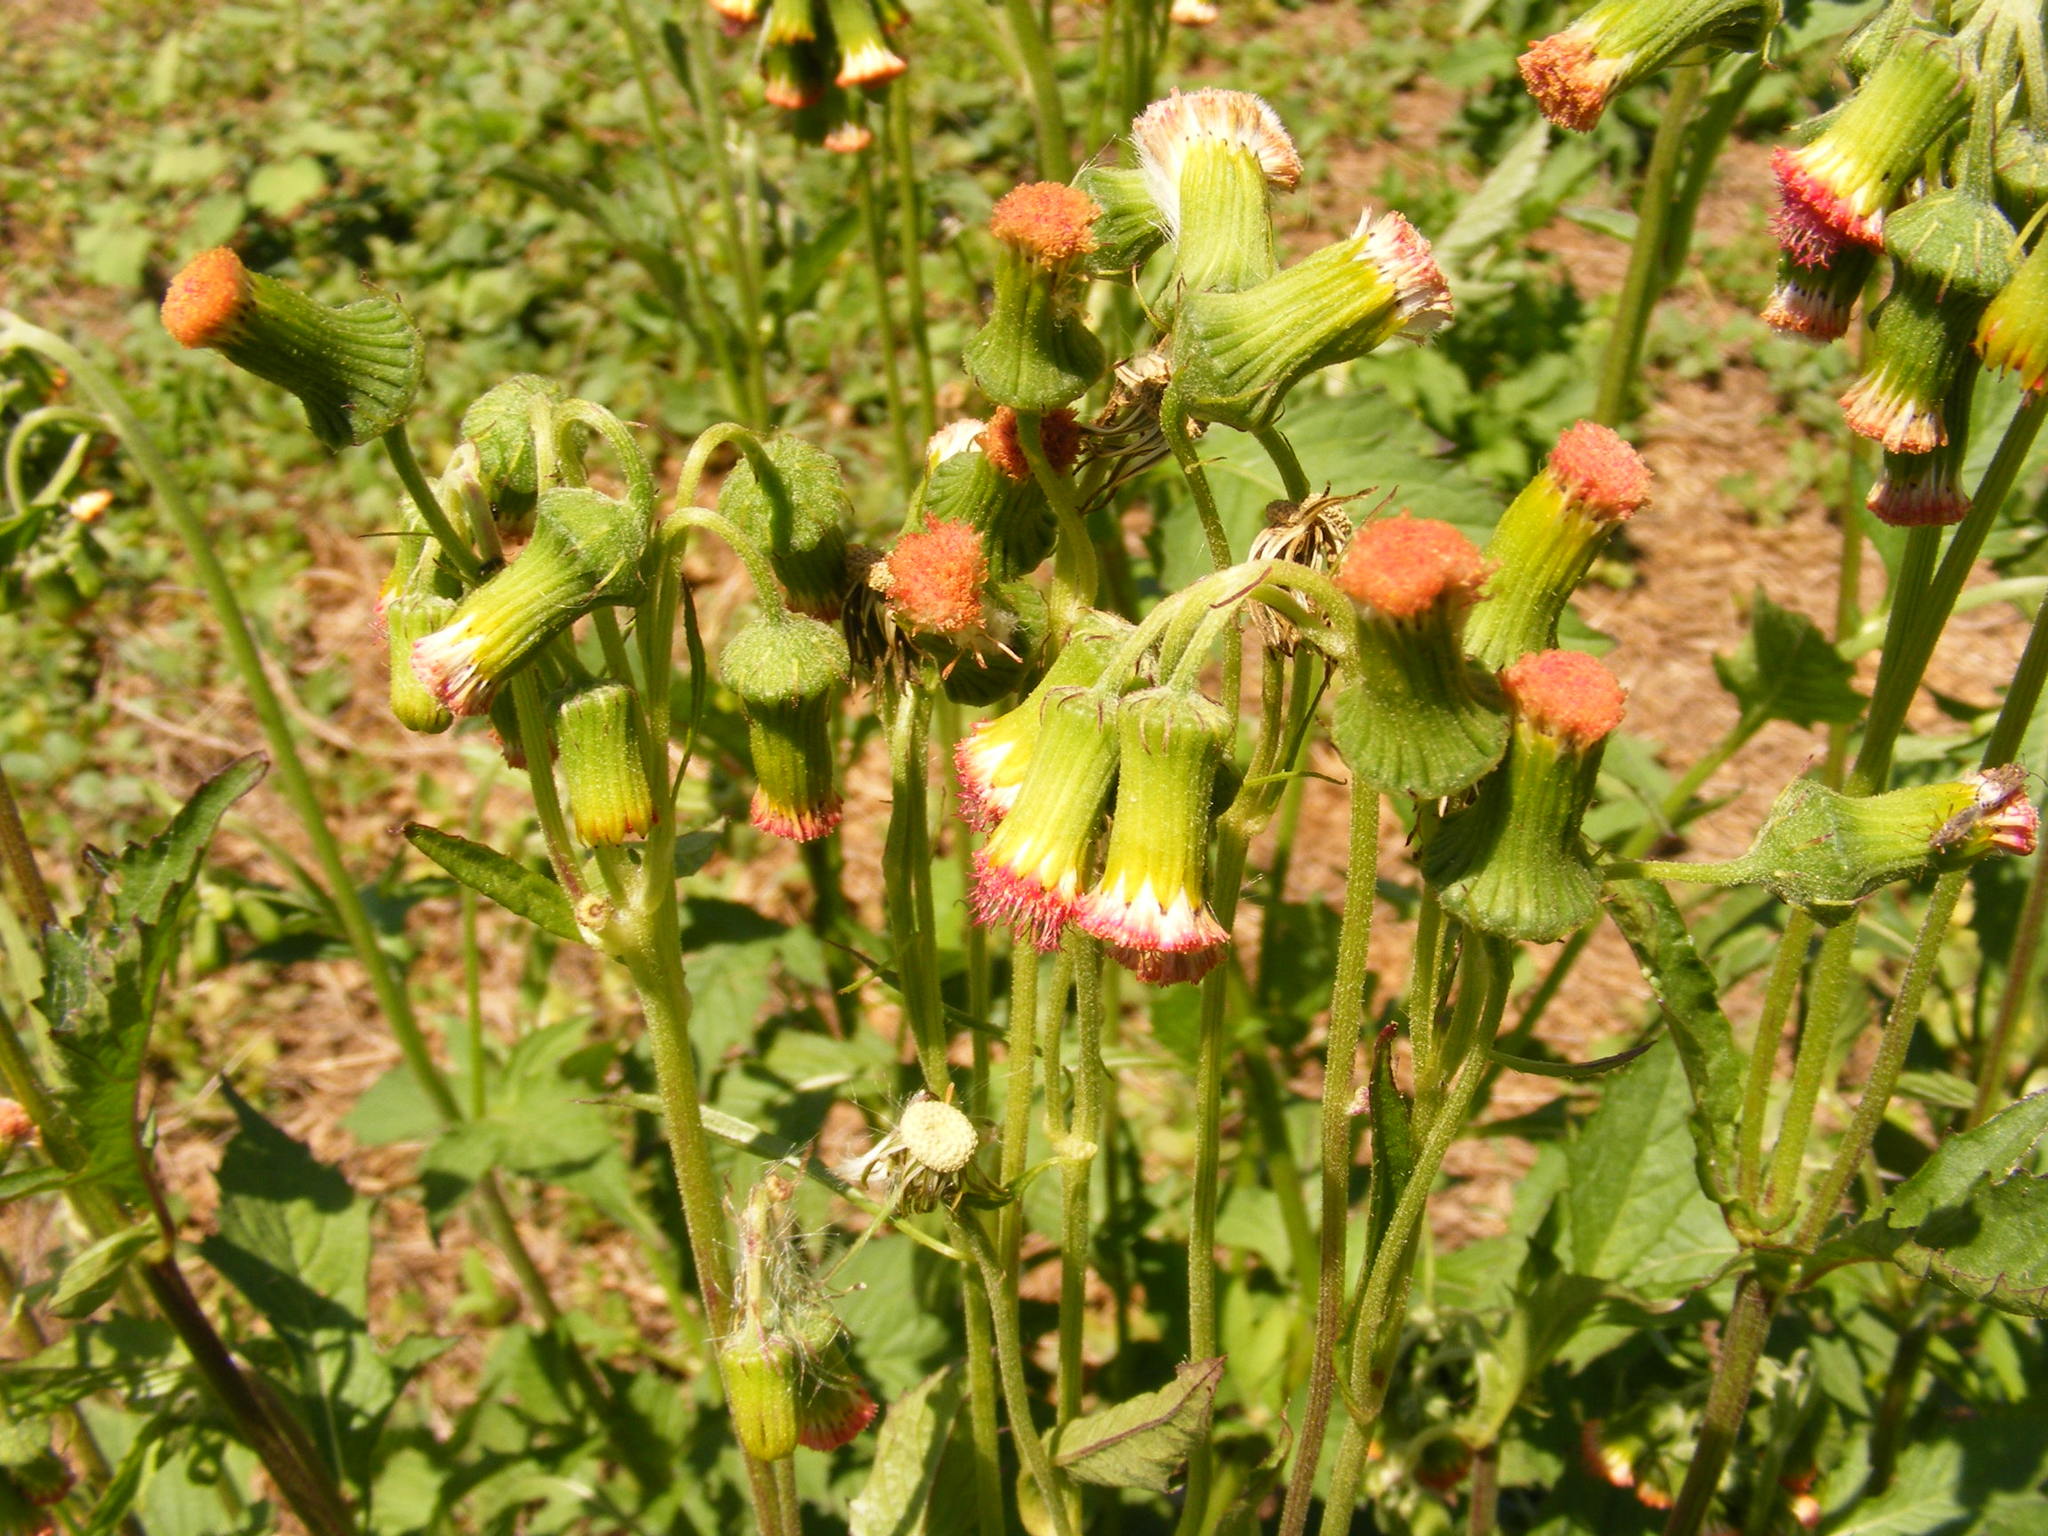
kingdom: Plantae
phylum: Tracheophyta
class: Magnoliopsida
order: Asterales
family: Asteraceae
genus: Crassocephalum
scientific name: Crassocephalum crepidioides
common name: Redflower ragleaf
